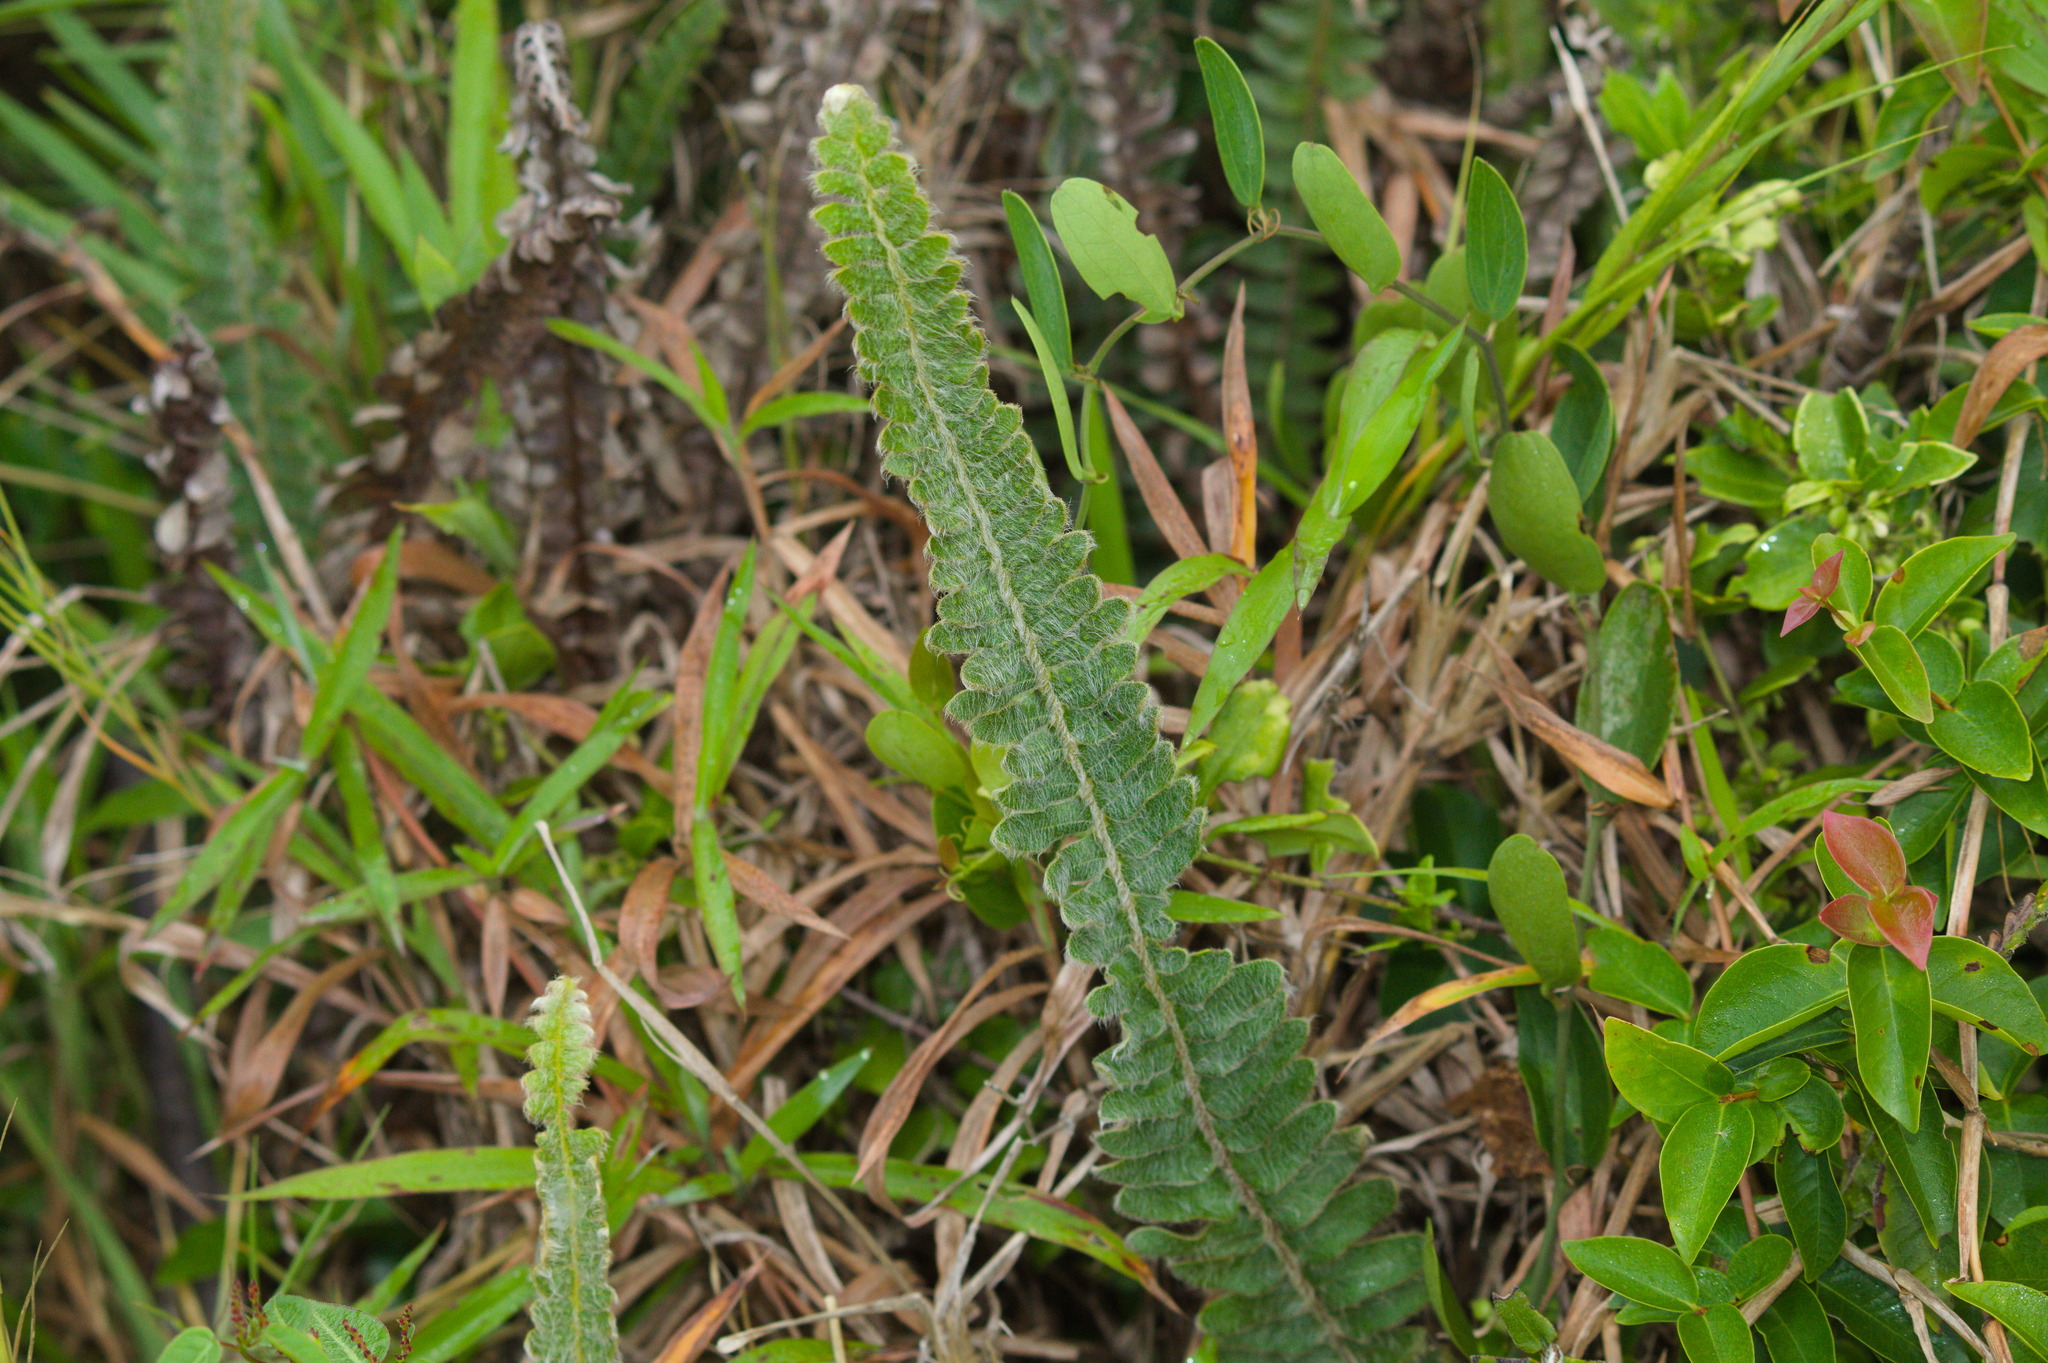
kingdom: Plantae
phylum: Tracheophyta
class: Polypodiopsida
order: Polypodiales
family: Polypodiaceae
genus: Pleopeltis
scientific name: Pleopeltis lepidopteris
